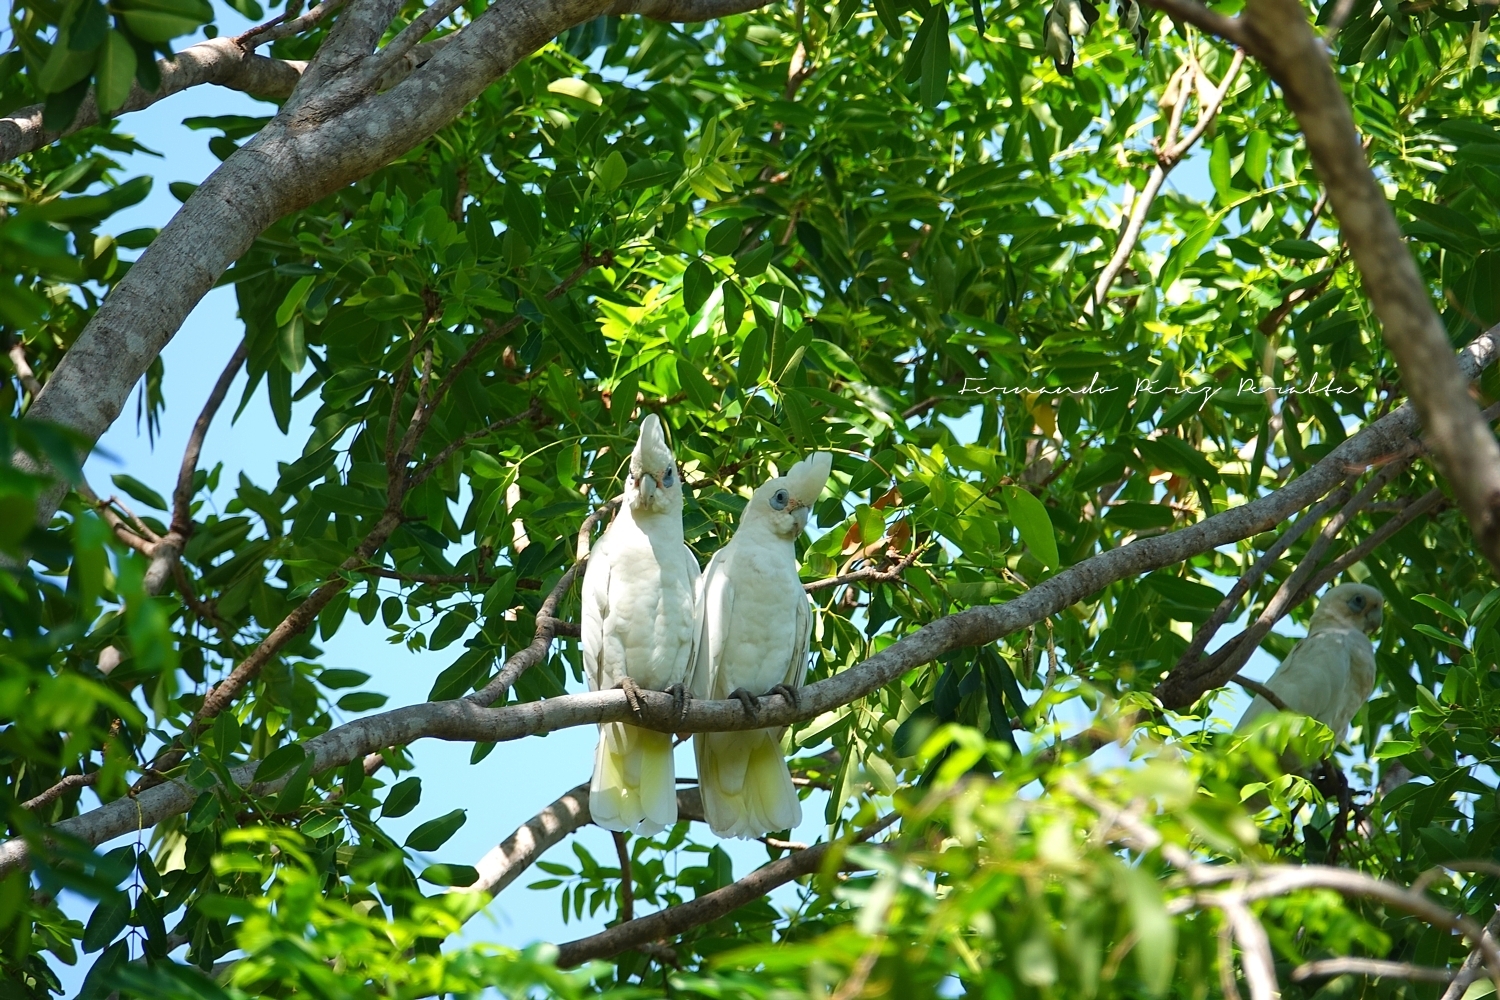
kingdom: Animalia
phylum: Chordata
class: Aves
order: Psittaciformes
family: Psittacidae
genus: Cacatua
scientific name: Cacatua sanguinea
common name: Little corella
